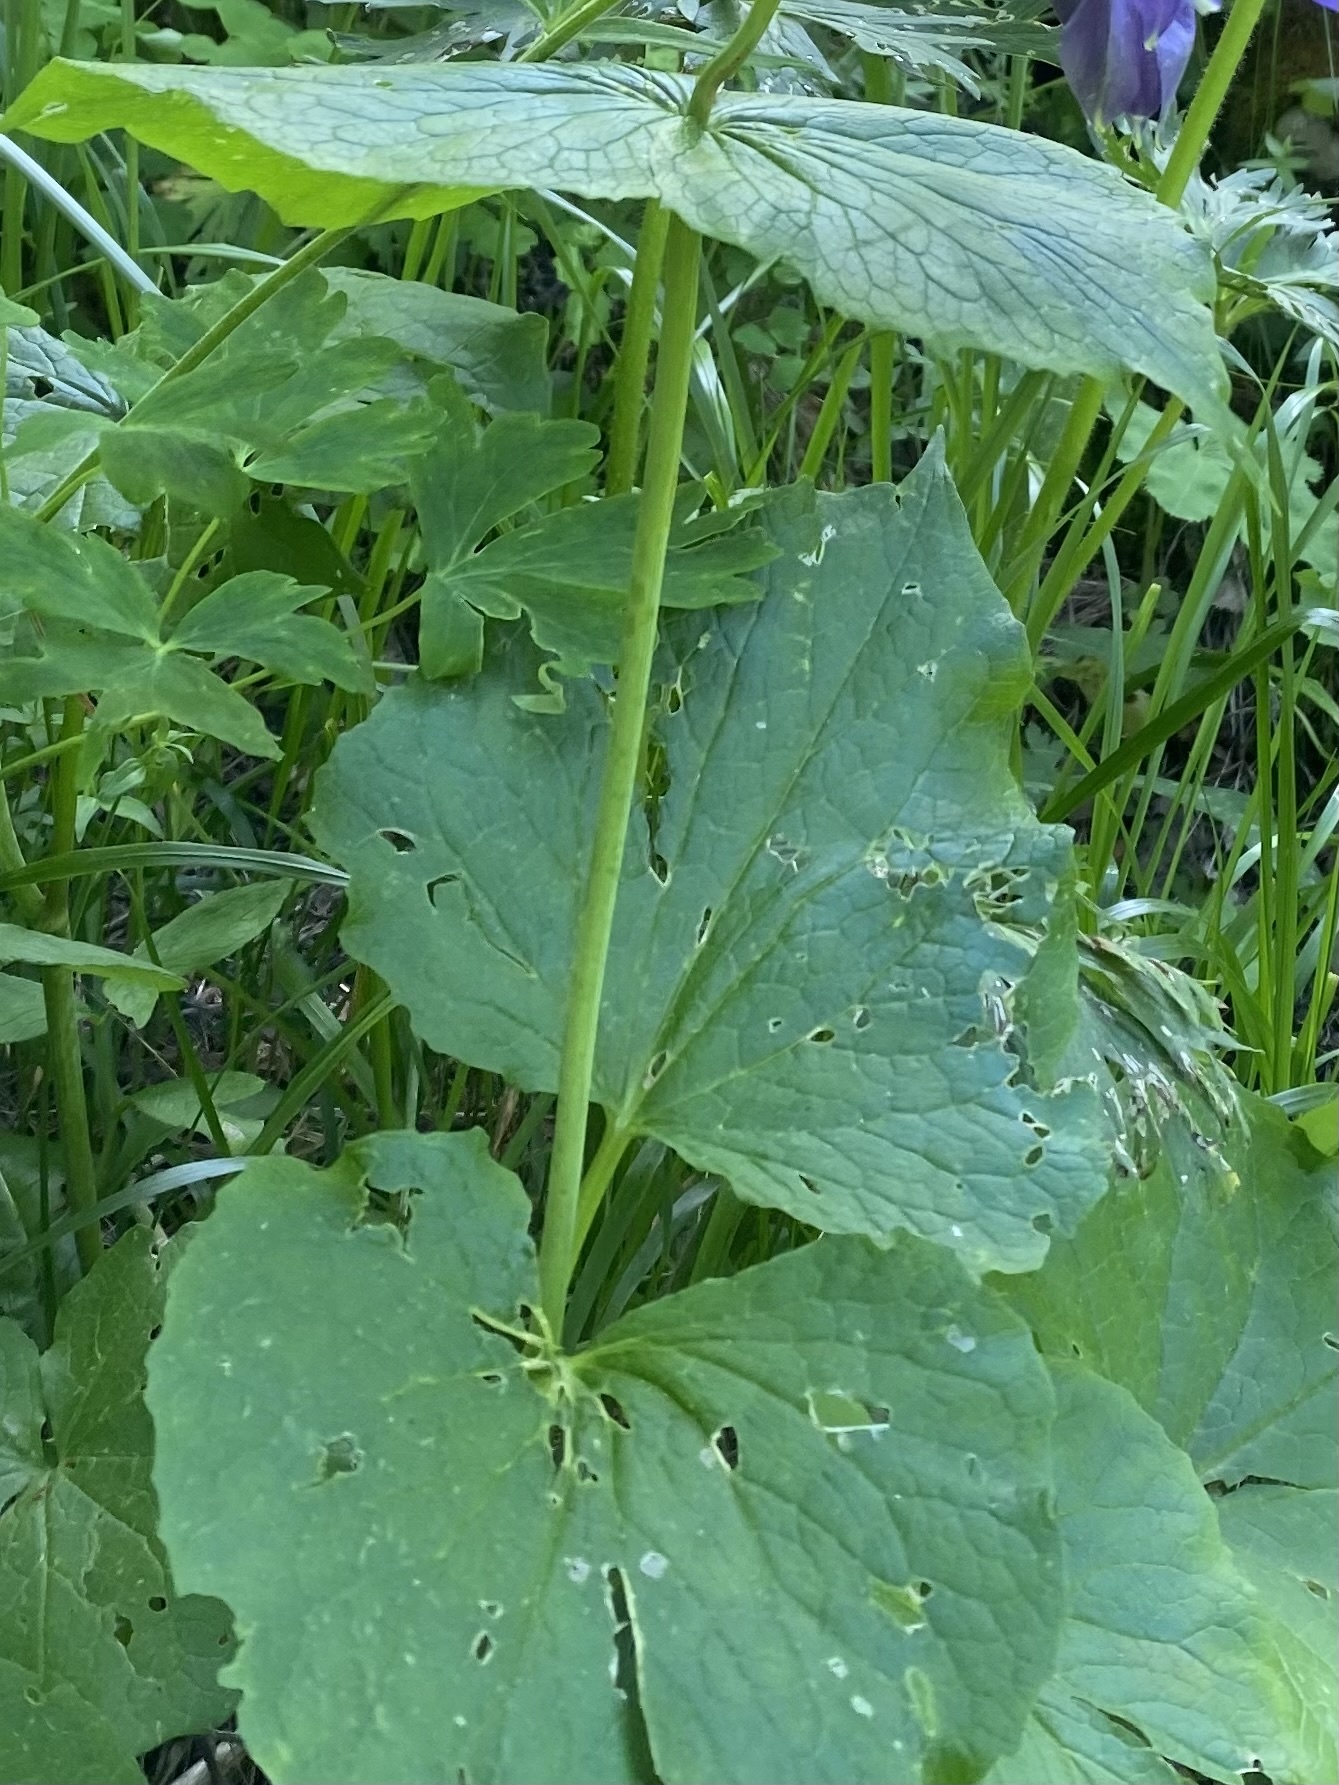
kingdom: Plantae
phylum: Tracheophyta
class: Magnoliopsida
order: Dipsacales
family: Caprifoliaceae
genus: Valeriana
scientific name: Valeriana alliariifolia
